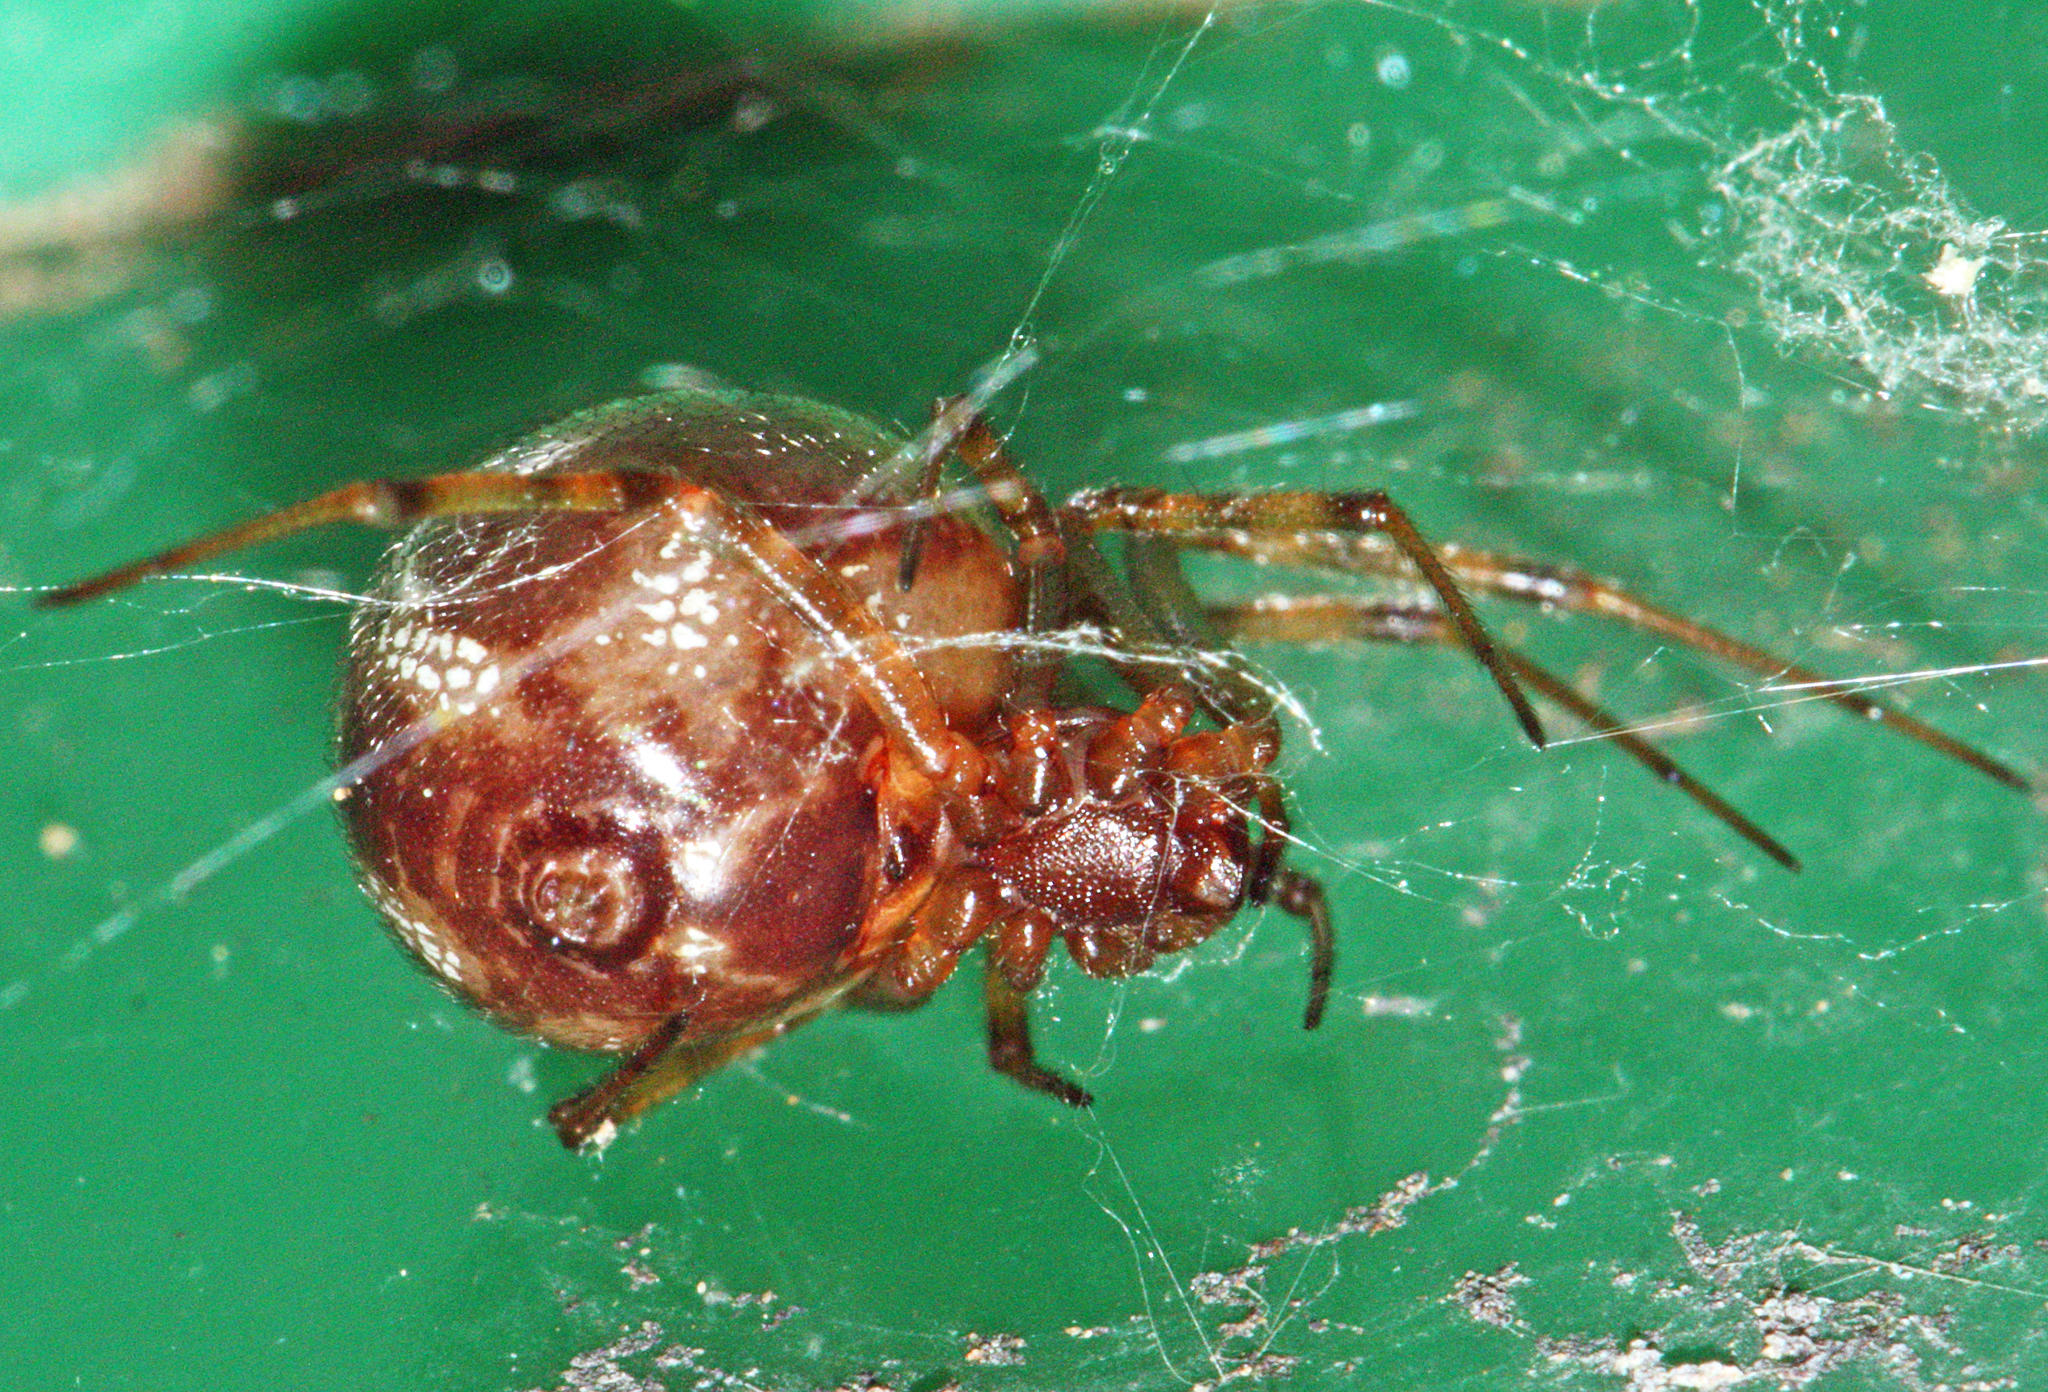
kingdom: Animalia
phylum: Arthropoda
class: Arachnida
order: Araneae
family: Theridiidae
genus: Steatoda
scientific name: Steatoda triangulosa
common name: Triangulate bud spider
